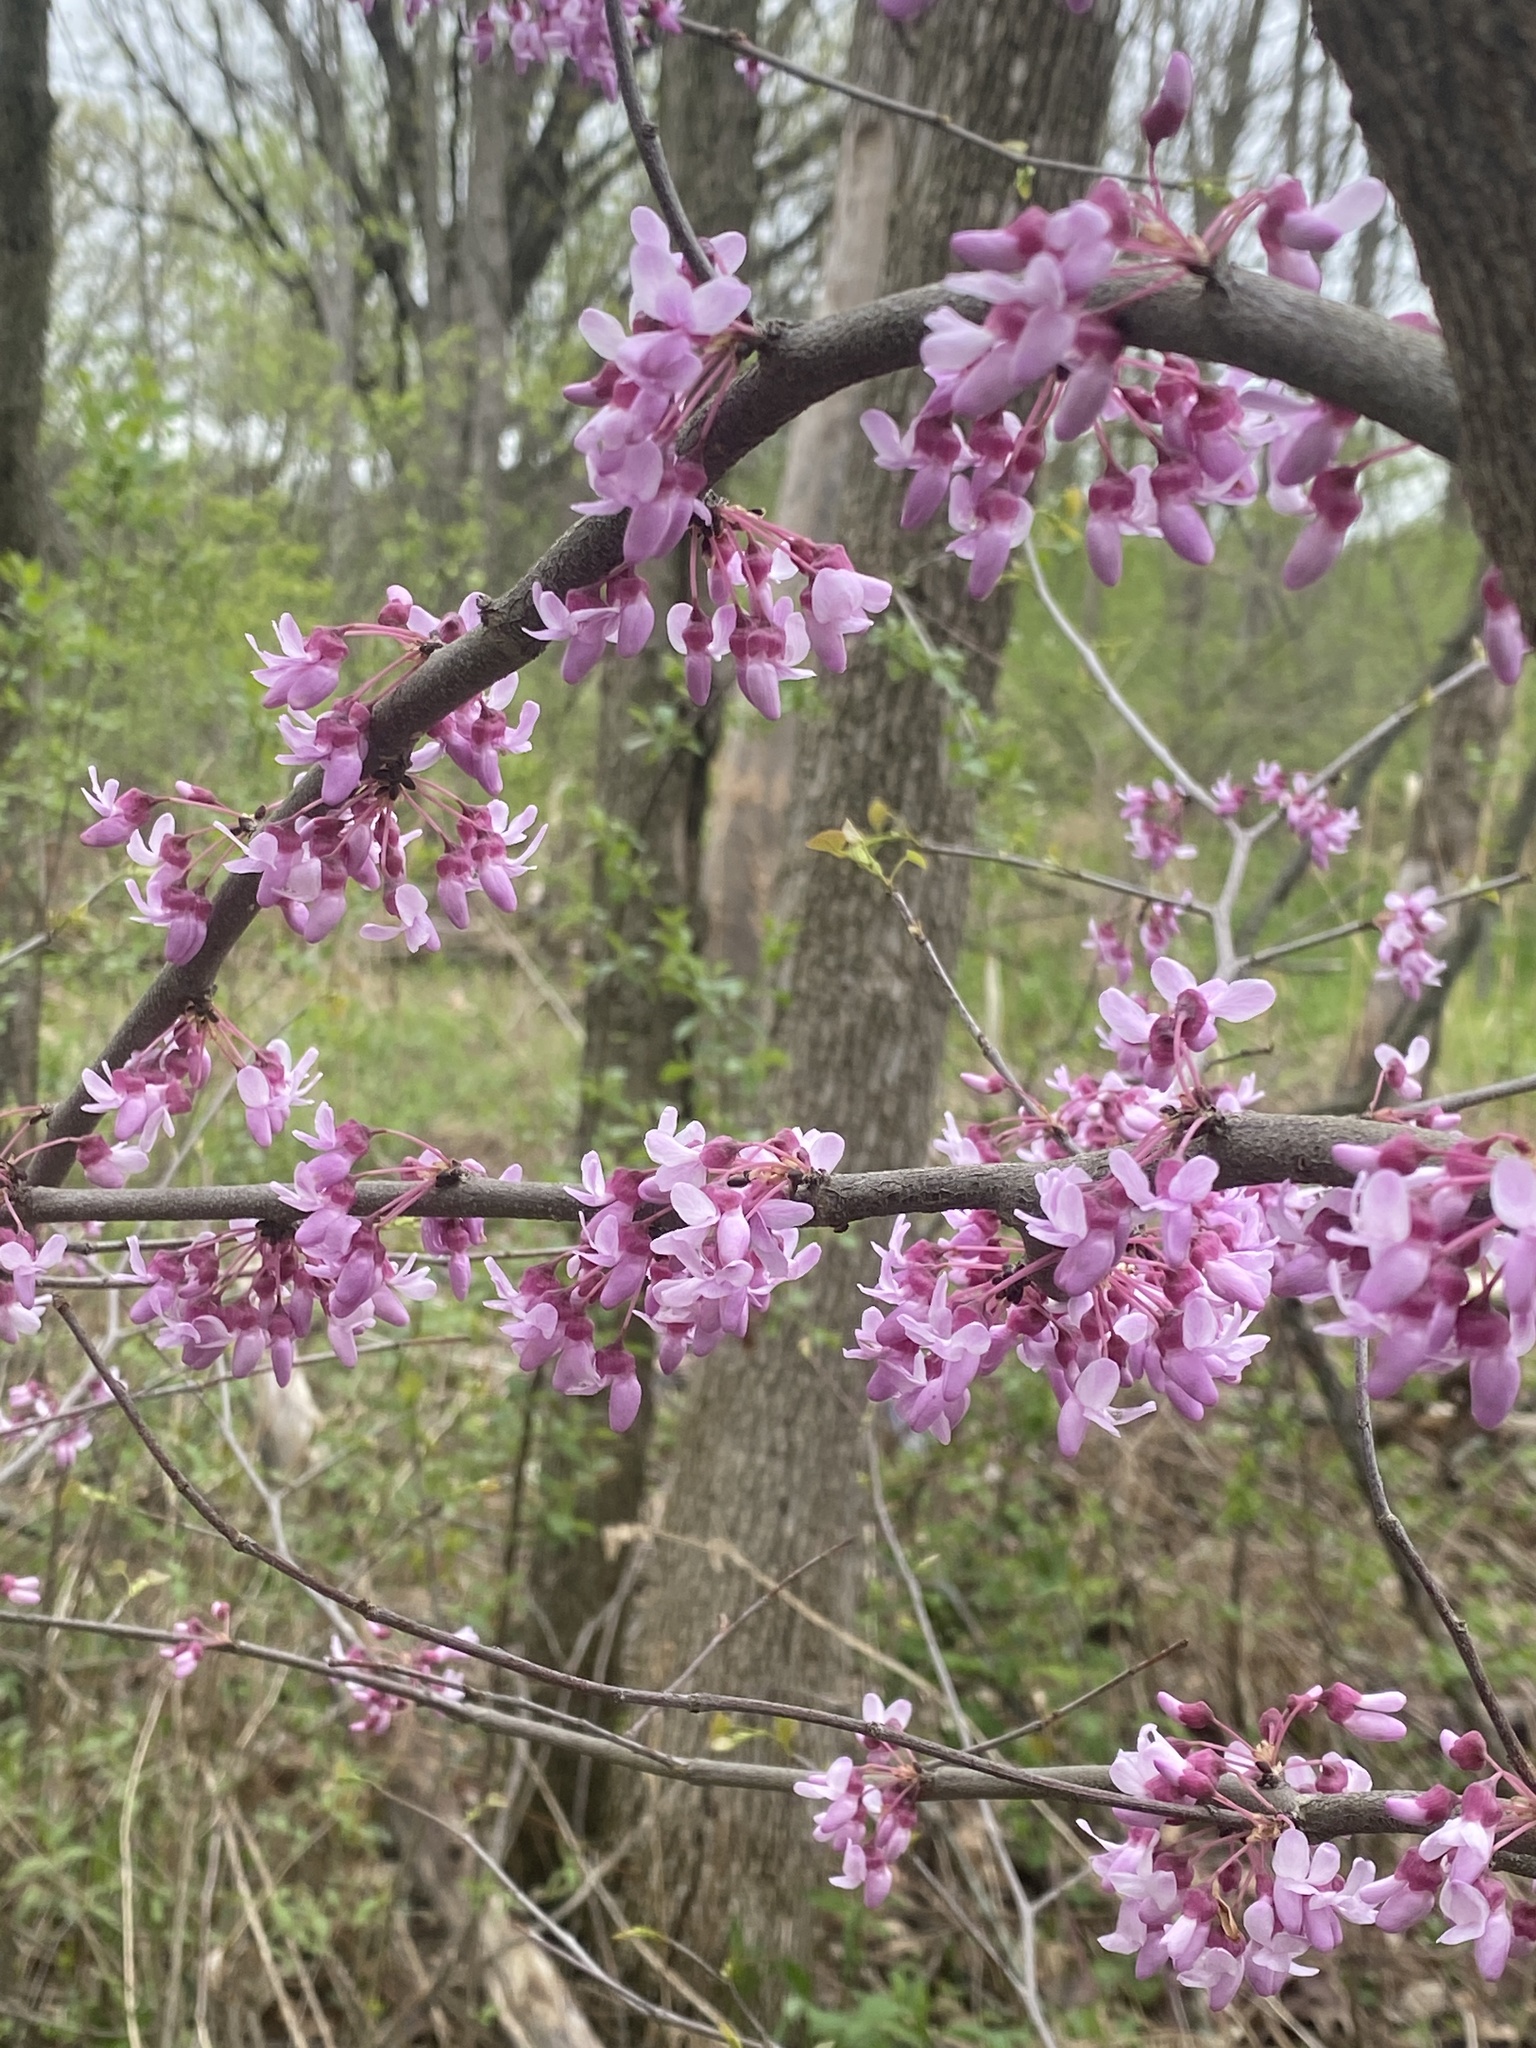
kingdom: Plantae
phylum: Tracheophyta
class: Magnoliopsida
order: Fabales
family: Fabaceae
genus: Cercis
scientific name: Cercis canadensis
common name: Eastern redbud
